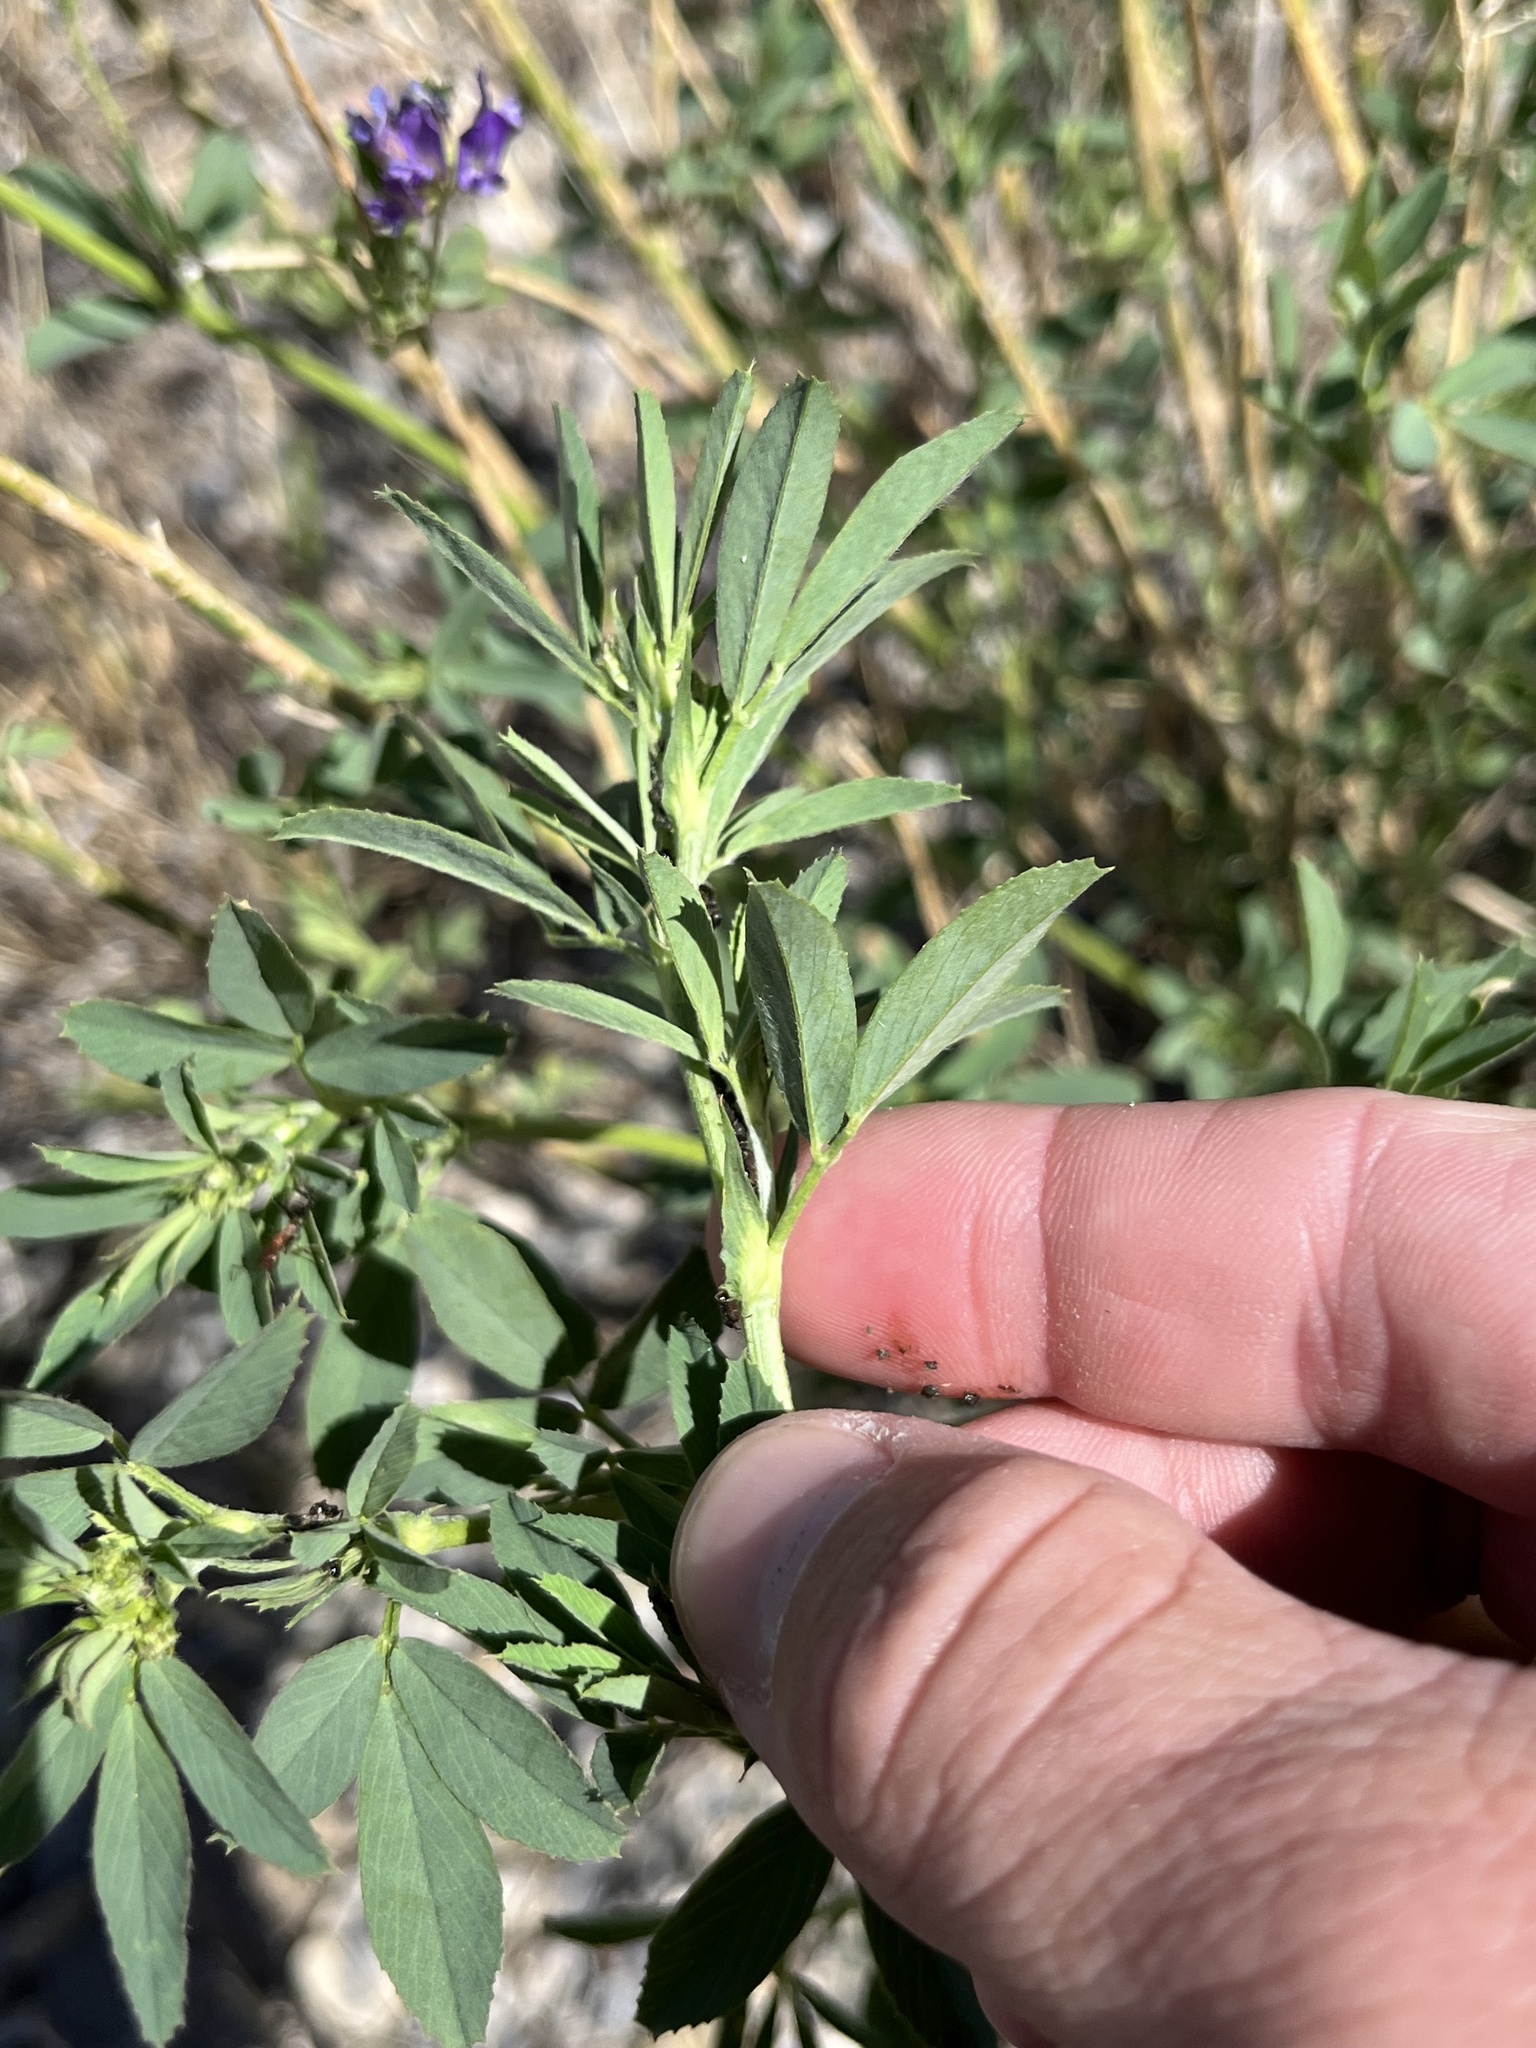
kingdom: Plantae
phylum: Tracheophyta
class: Magnoliopsida
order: Fabales
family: Fabaceae
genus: Medicago
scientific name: Medicago sativa
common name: Alfalfa
